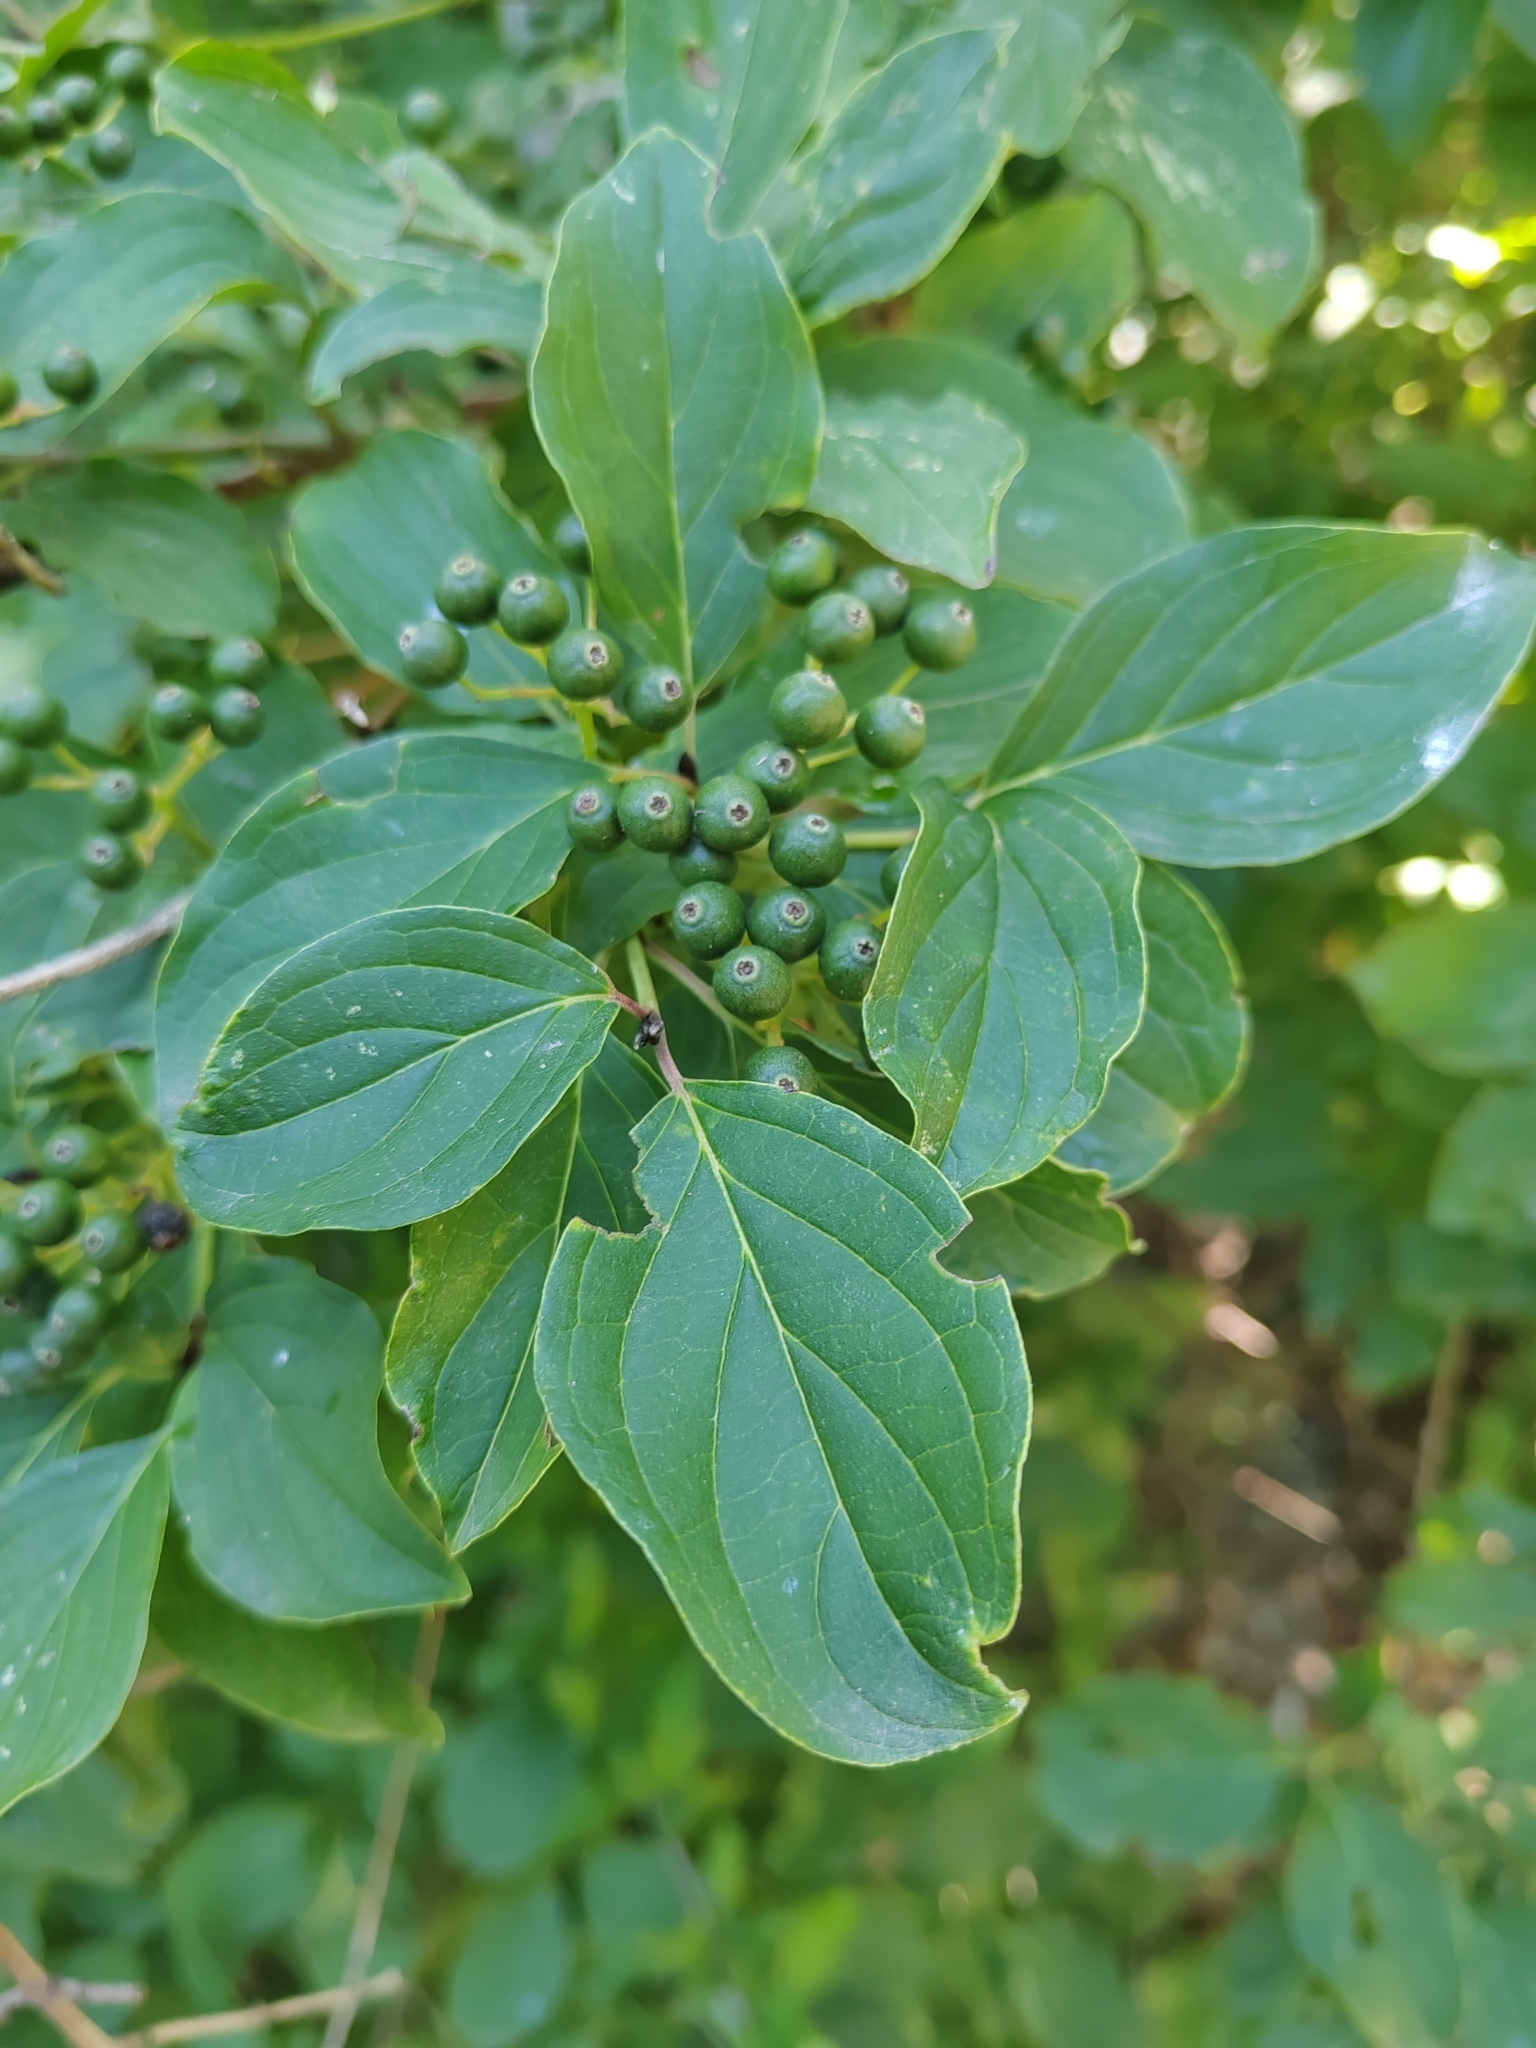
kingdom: Plantae
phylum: Tracheophyta
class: Magnoliopsida
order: Rosales
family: Rhamnaceae
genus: Rhamnus
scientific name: Rhamnus cathartica
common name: Common buckthorn
